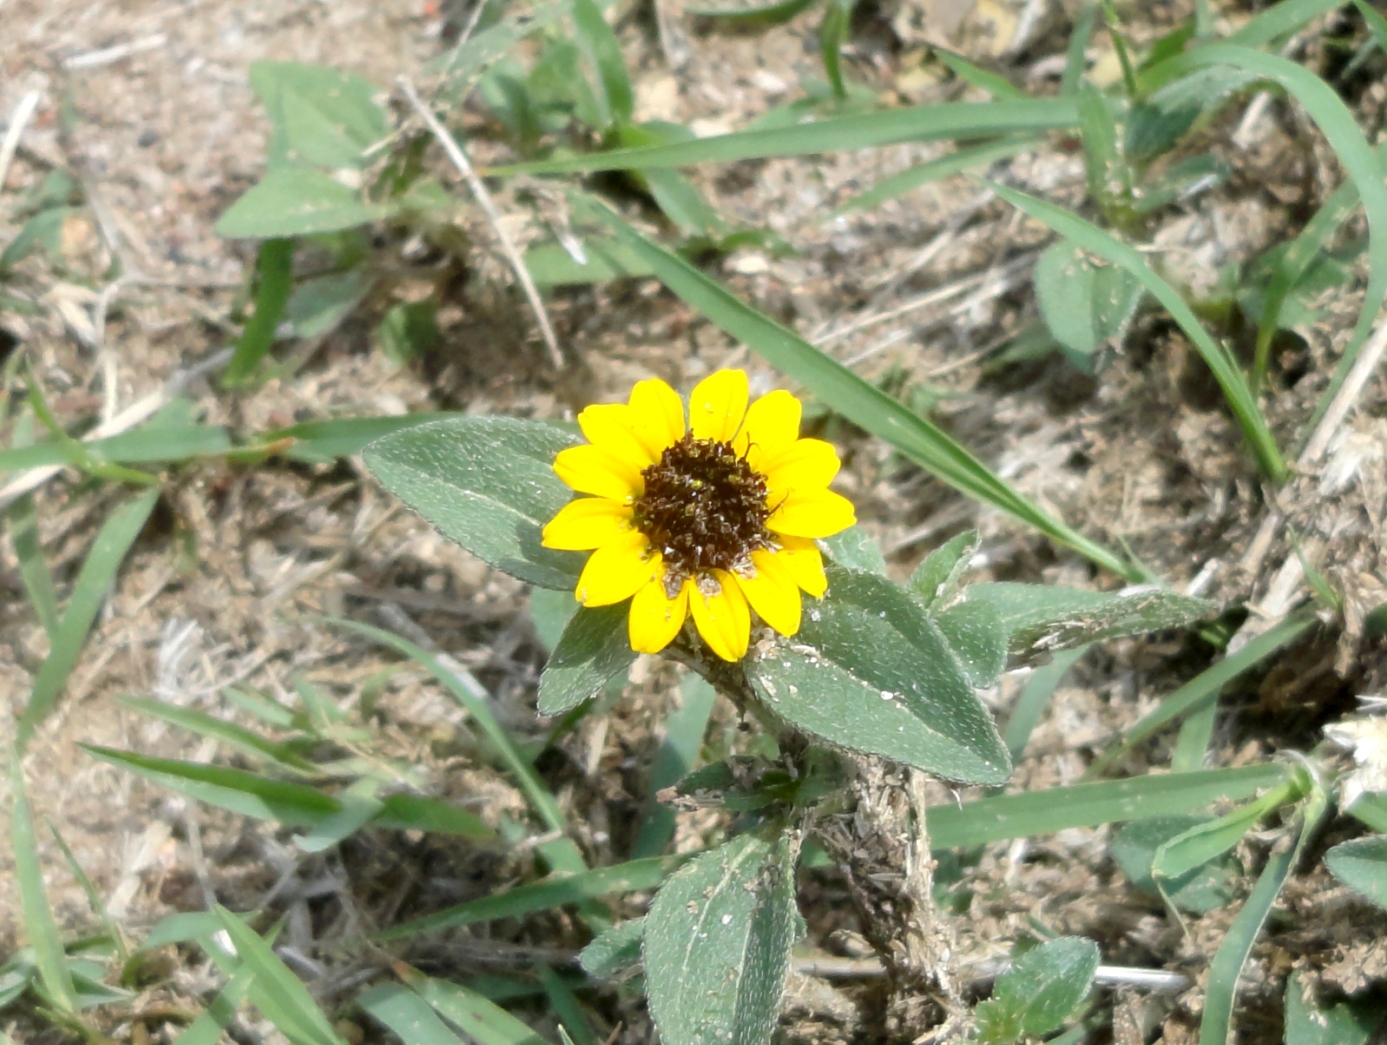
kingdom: Plantae
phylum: Tracheophyta
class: Magnoliopsida
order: Asterales
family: Asteraceae
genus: Sanvitalia
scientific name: Sanvitalia procumbens
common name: Mexican creeping zinnia
